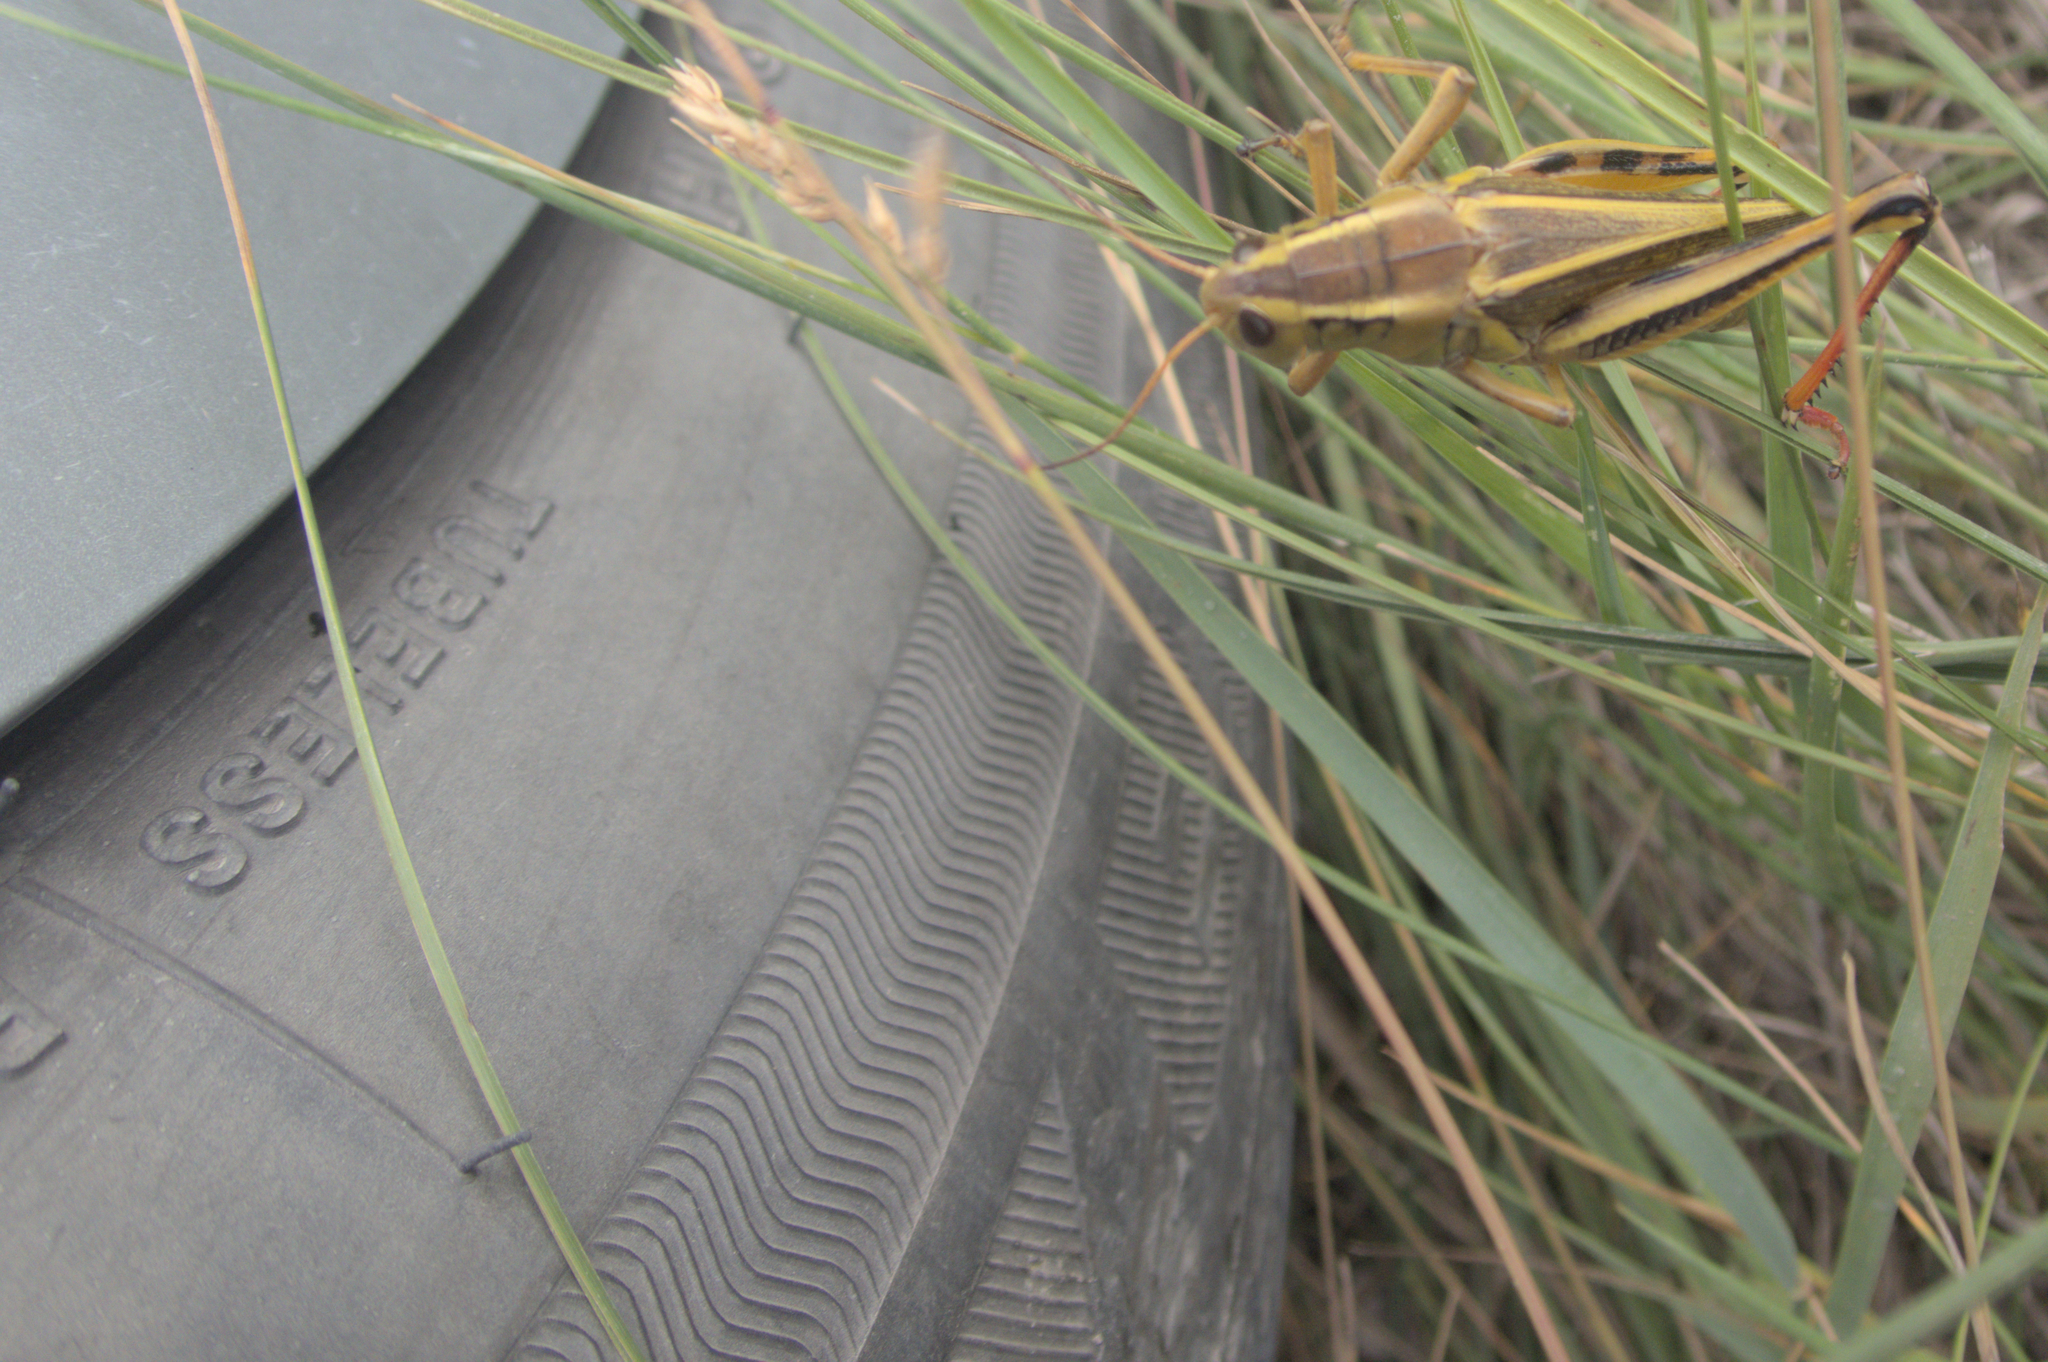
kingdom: Animalia
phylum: Arthropoda
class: Insecta
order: Orthoptera
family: Acrididae
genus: Melanoplus
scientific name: Melanoplus bivittatus
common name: Two-striped grasshopper
